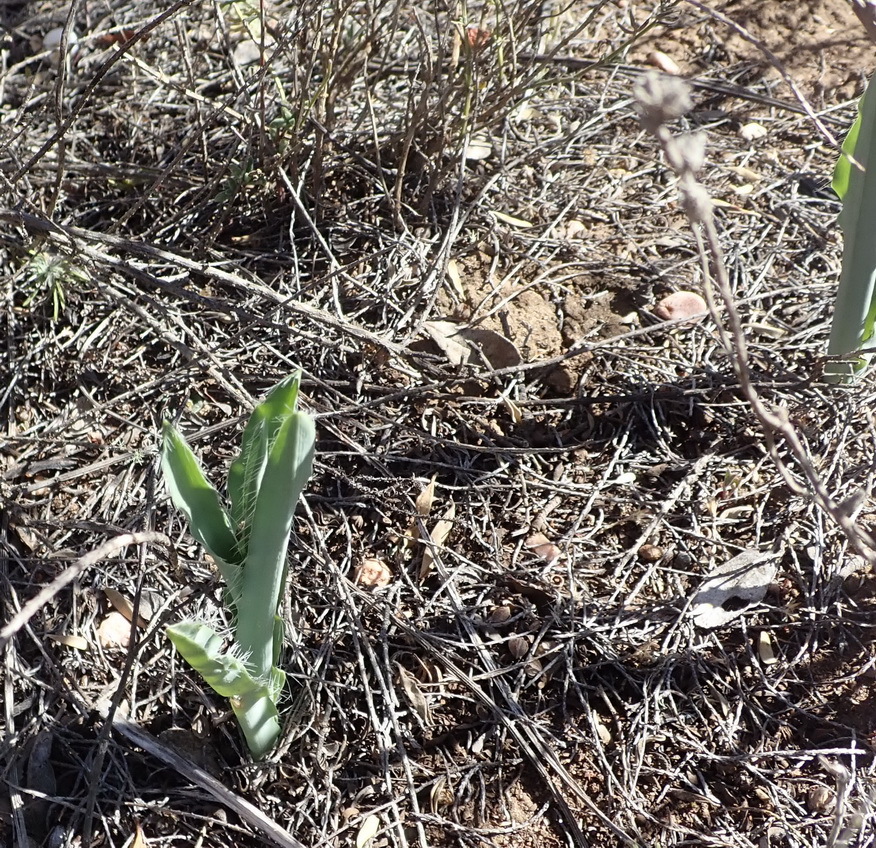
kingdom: Plantae
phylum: Tracheophyta
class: Liliopsida
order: Asparagales
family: Asparagaceae
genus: Drimia
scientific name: Drimia elata
